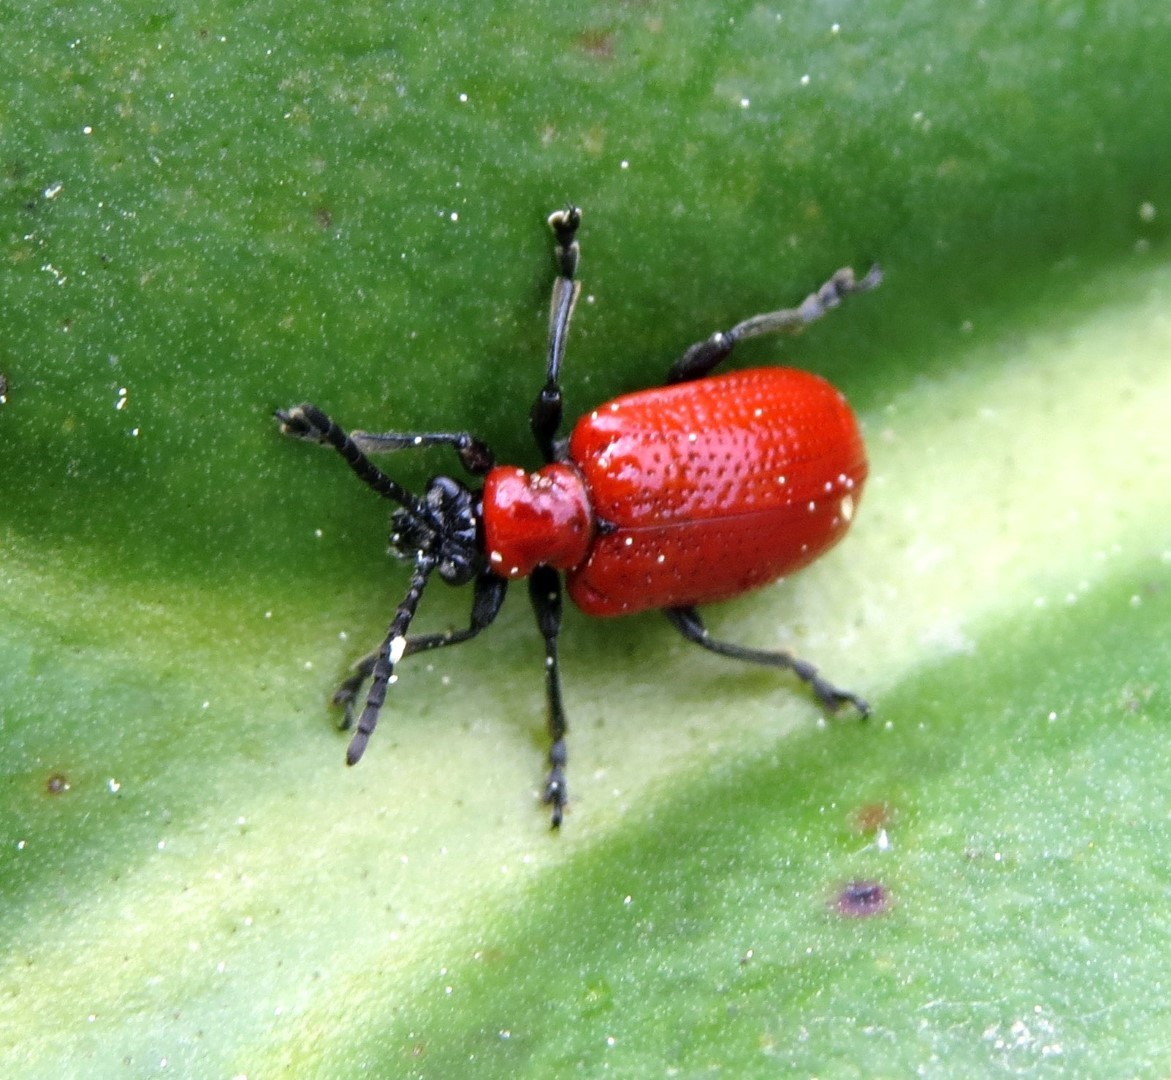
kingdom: Animalia
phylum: Arthropoda
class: Insecta
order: Coleoptera
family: Chrysomelidae
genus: Lilioceris
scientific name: Lilioceris lilii
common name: Lily beetle
